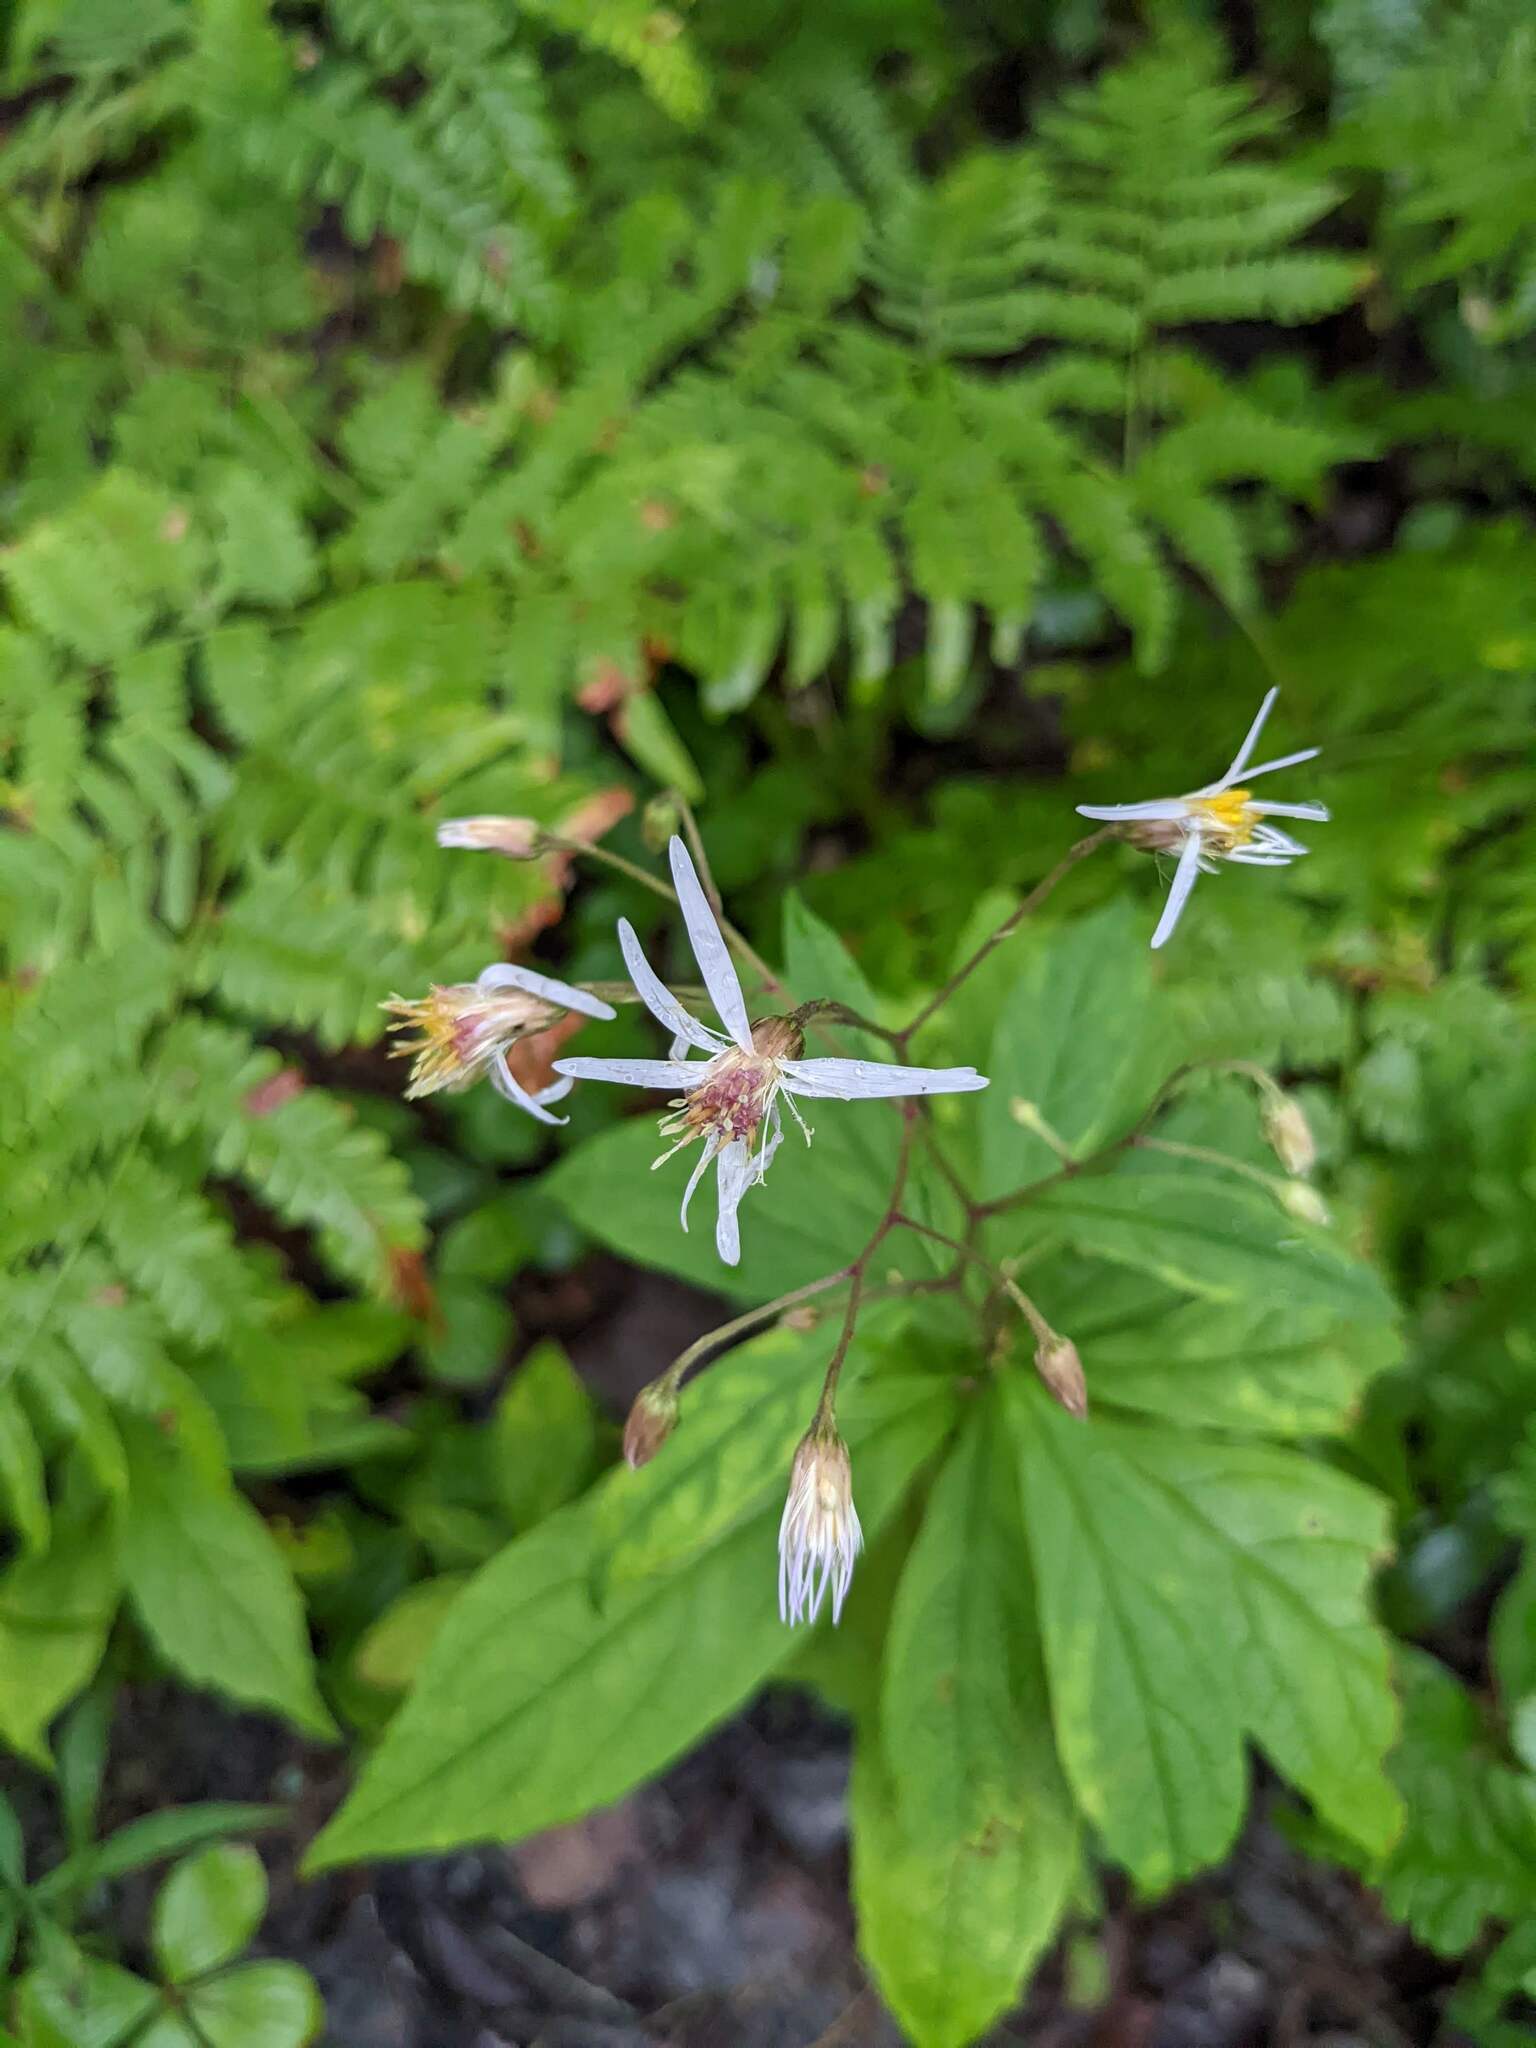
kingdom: Plantae
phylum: Tracheophyta
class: Magnoliopsida
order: Asterales
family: Asteraceae
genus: Oclemena
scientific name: Oclemena acuminata
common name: Mountain aster
